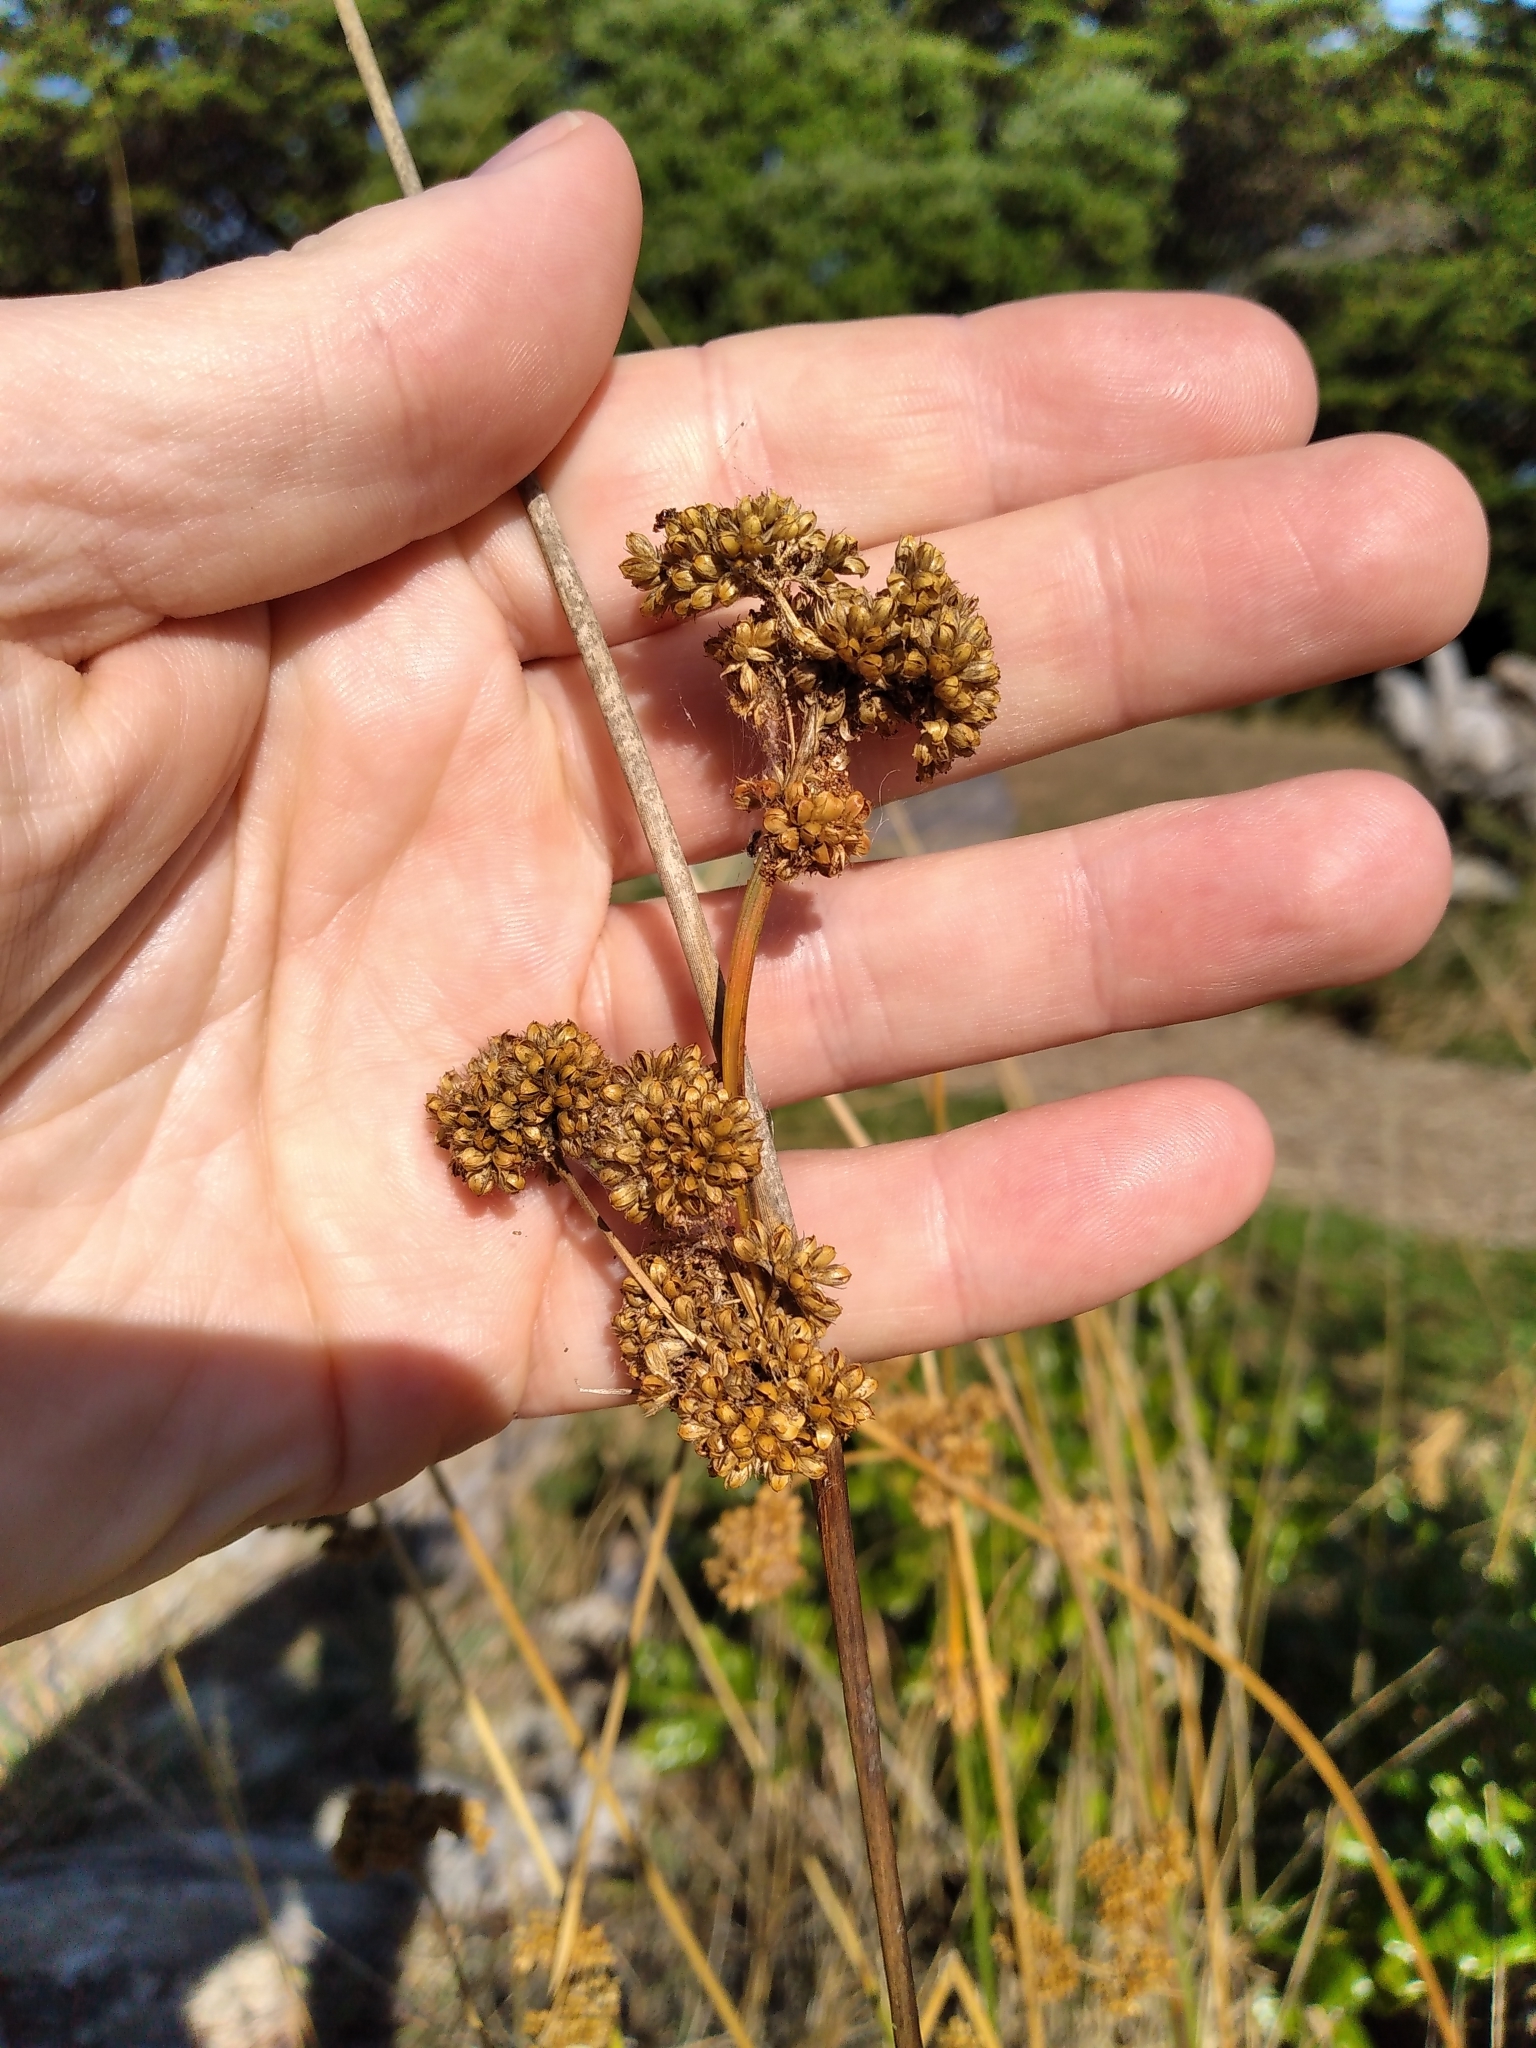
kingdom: Plantae
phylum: Tracheophyta
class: Liliopsida
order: Poales
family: Juncaceae
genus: Juncus
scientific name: Juncus australis
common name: Austral rush
